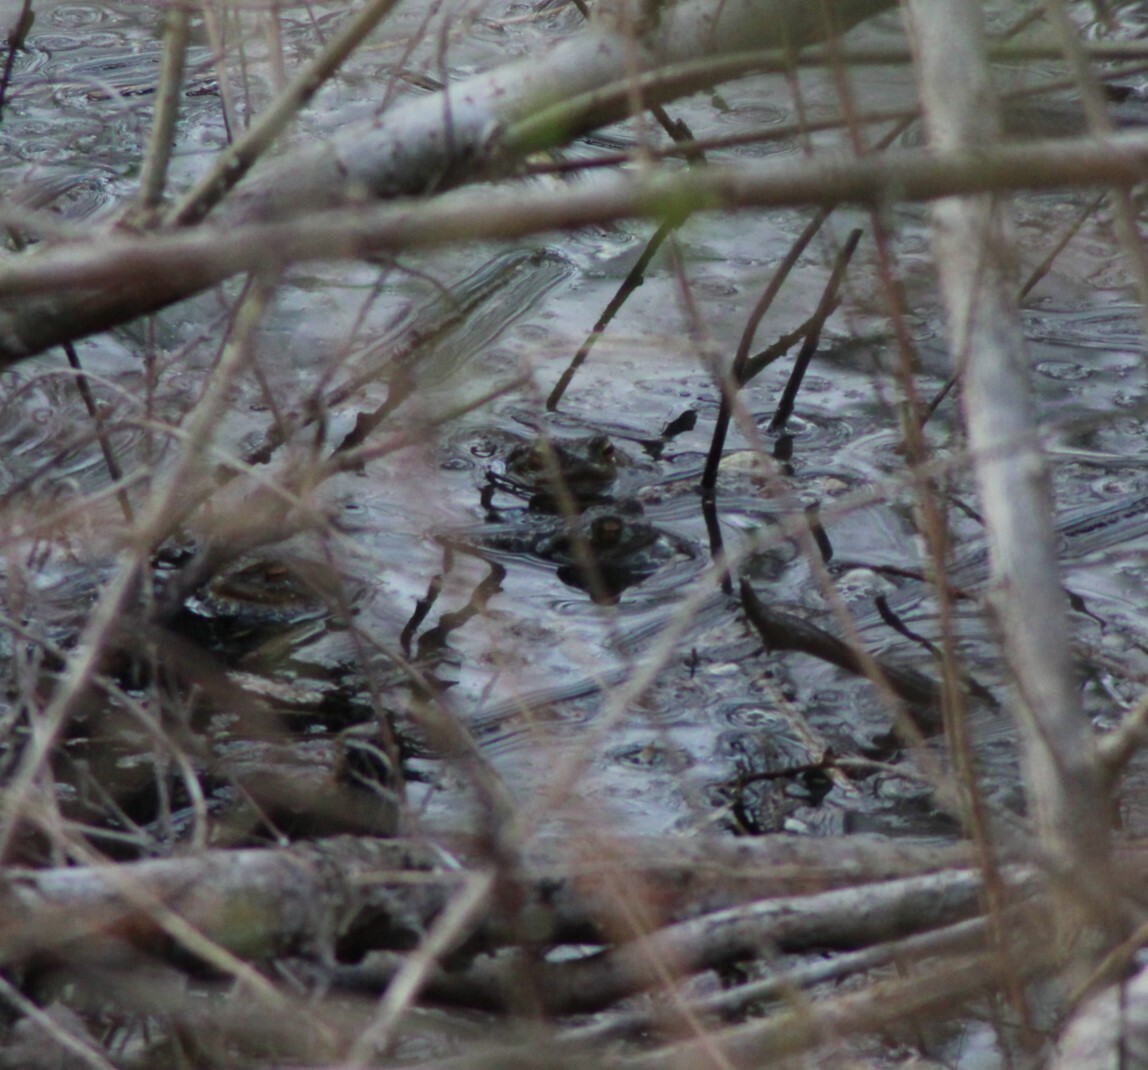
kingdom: Animalia
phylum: Chordata
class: Amphibia
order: Anura
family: Bufonidae
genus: Bufo
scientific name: Bufo bufo
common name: Common toad
